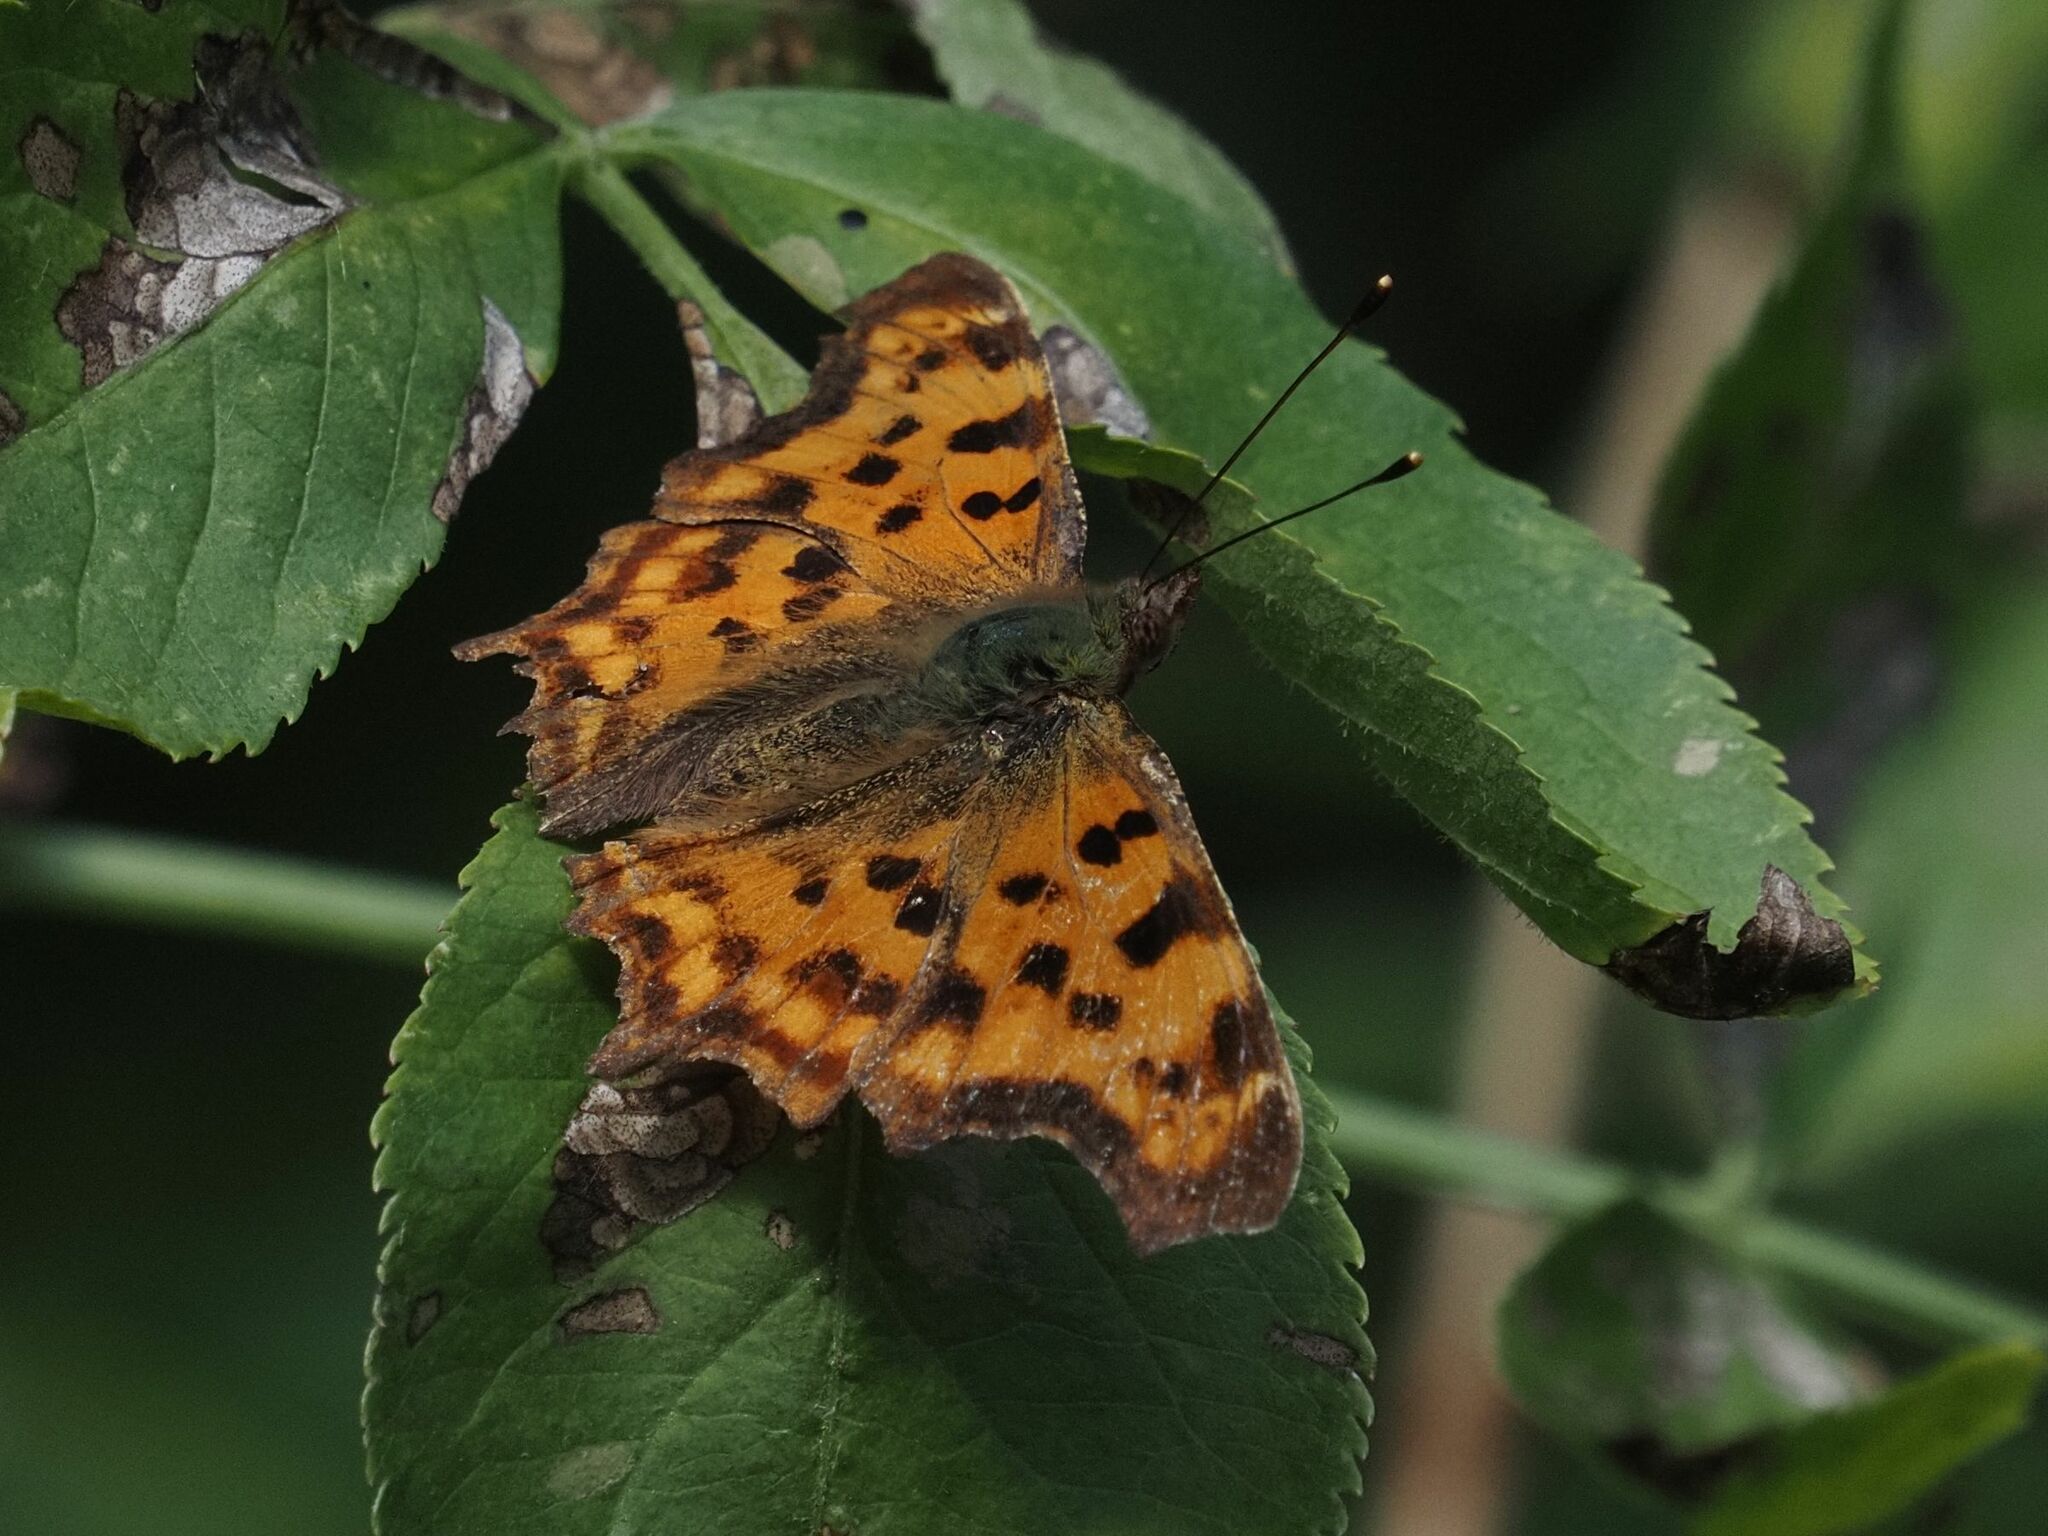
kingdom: Animalia
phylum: Arthropoda
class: Insecta
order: Lepidoptera
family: Nymphalidae
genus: Polygonia
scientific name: Polygonia c-album
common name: Comma
